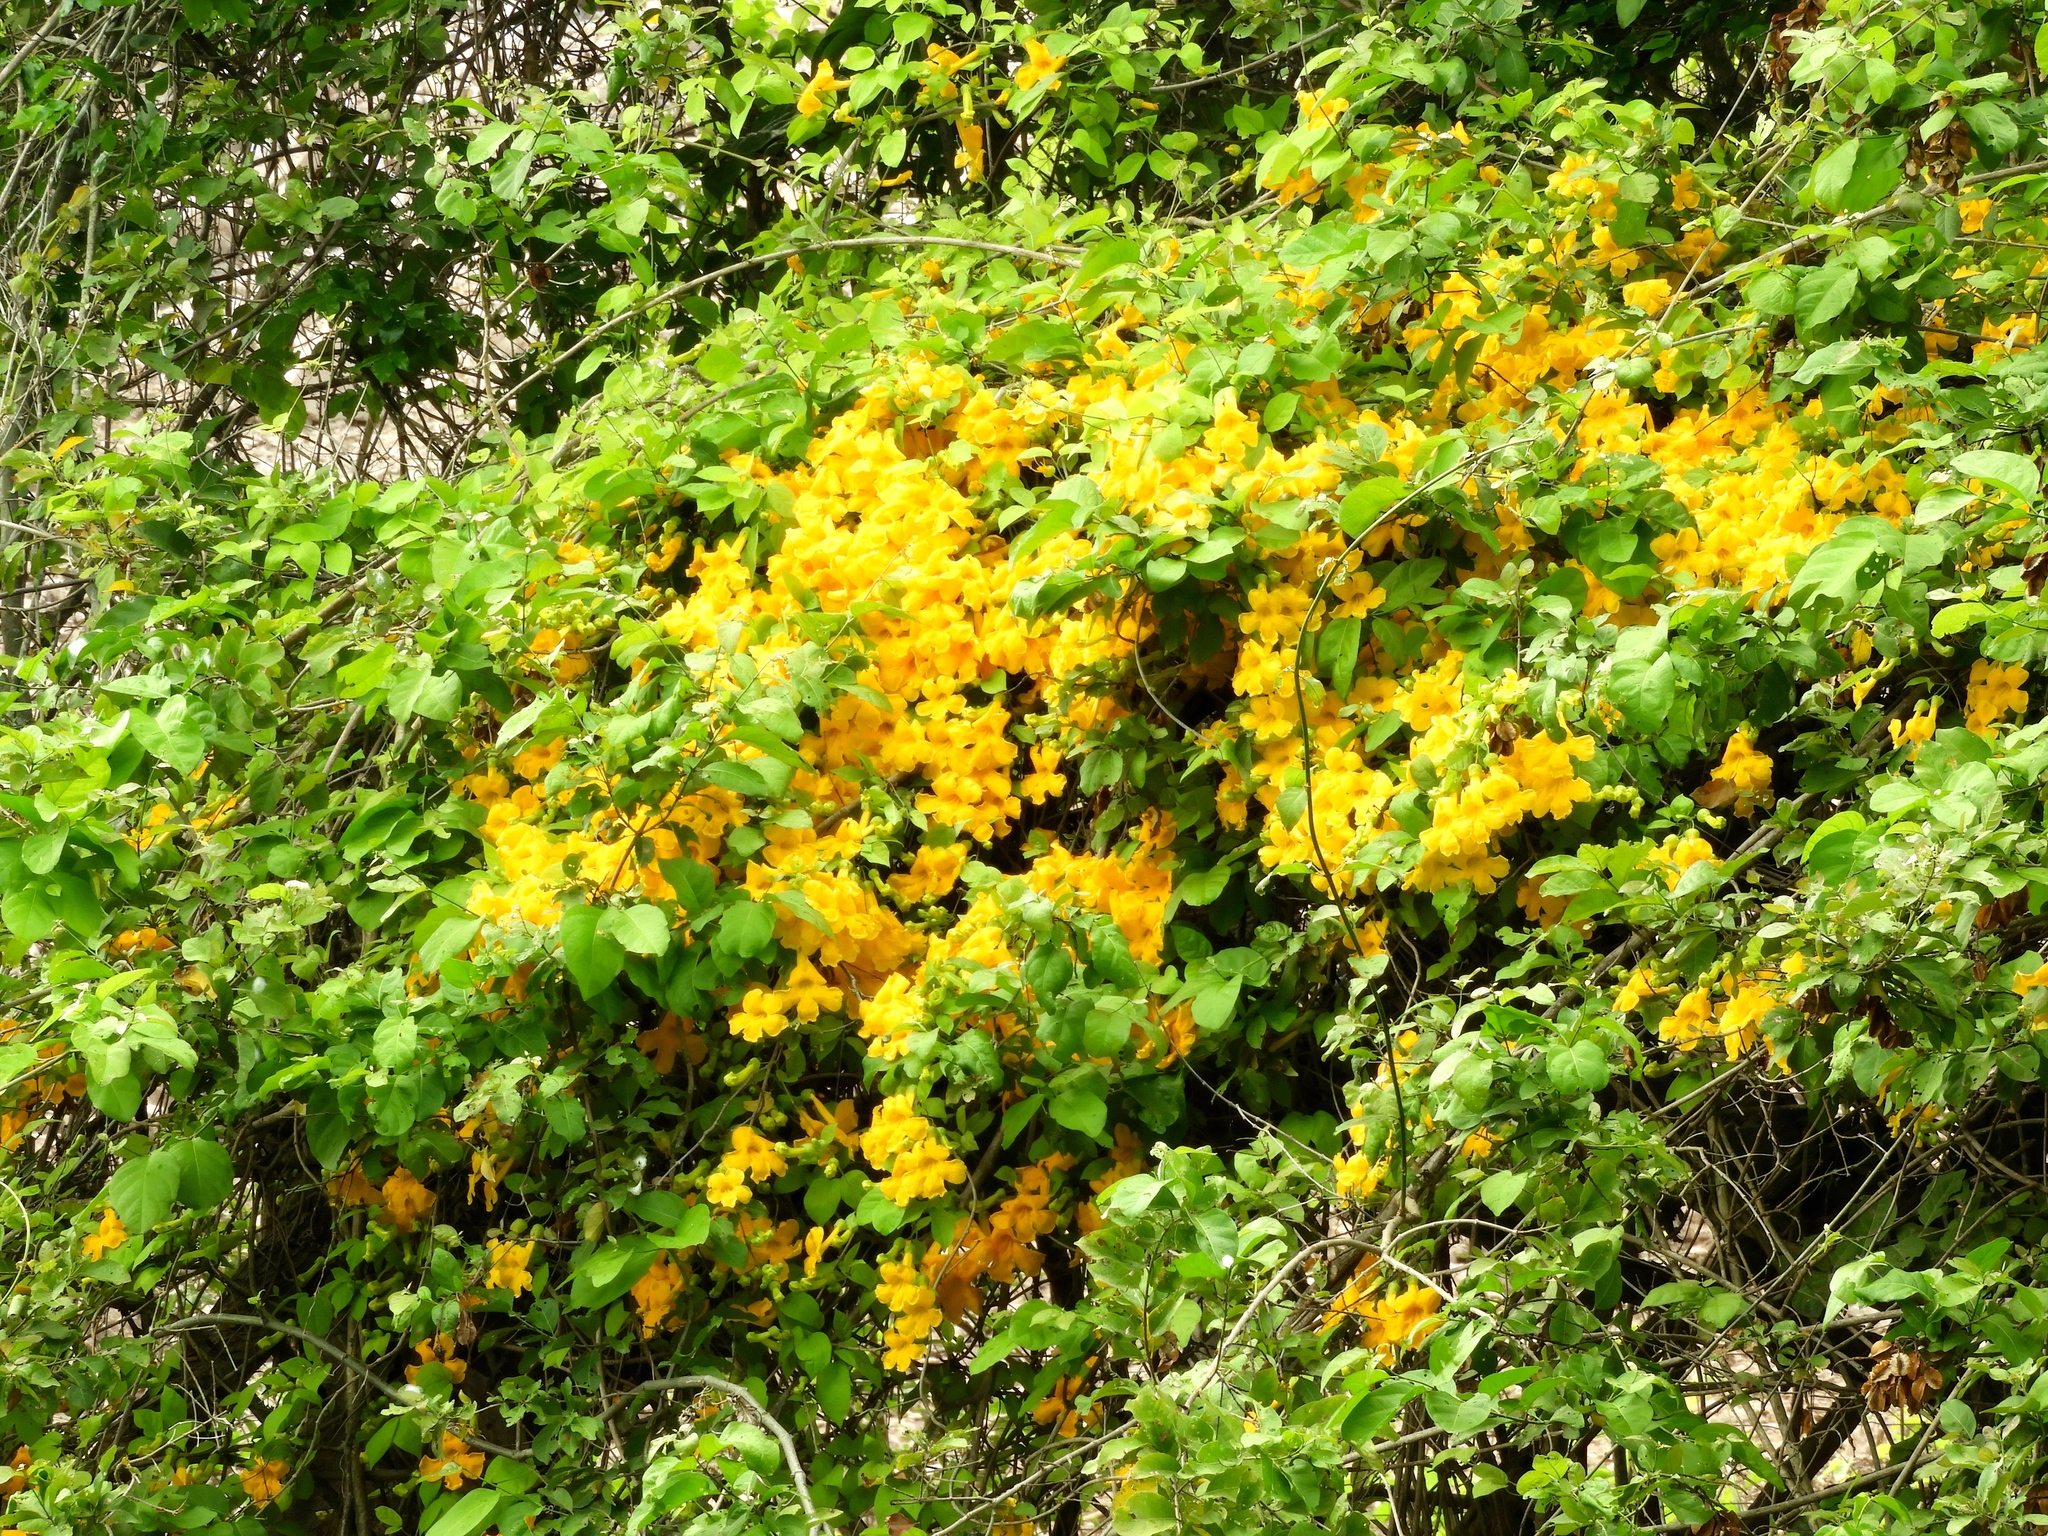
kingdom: Plantae
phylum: Tracheophyta
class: Magnoliopsida
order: Lamiales
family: Bignoniaceae
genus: Adenocalymma
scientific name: Adenocalymma inundatum
